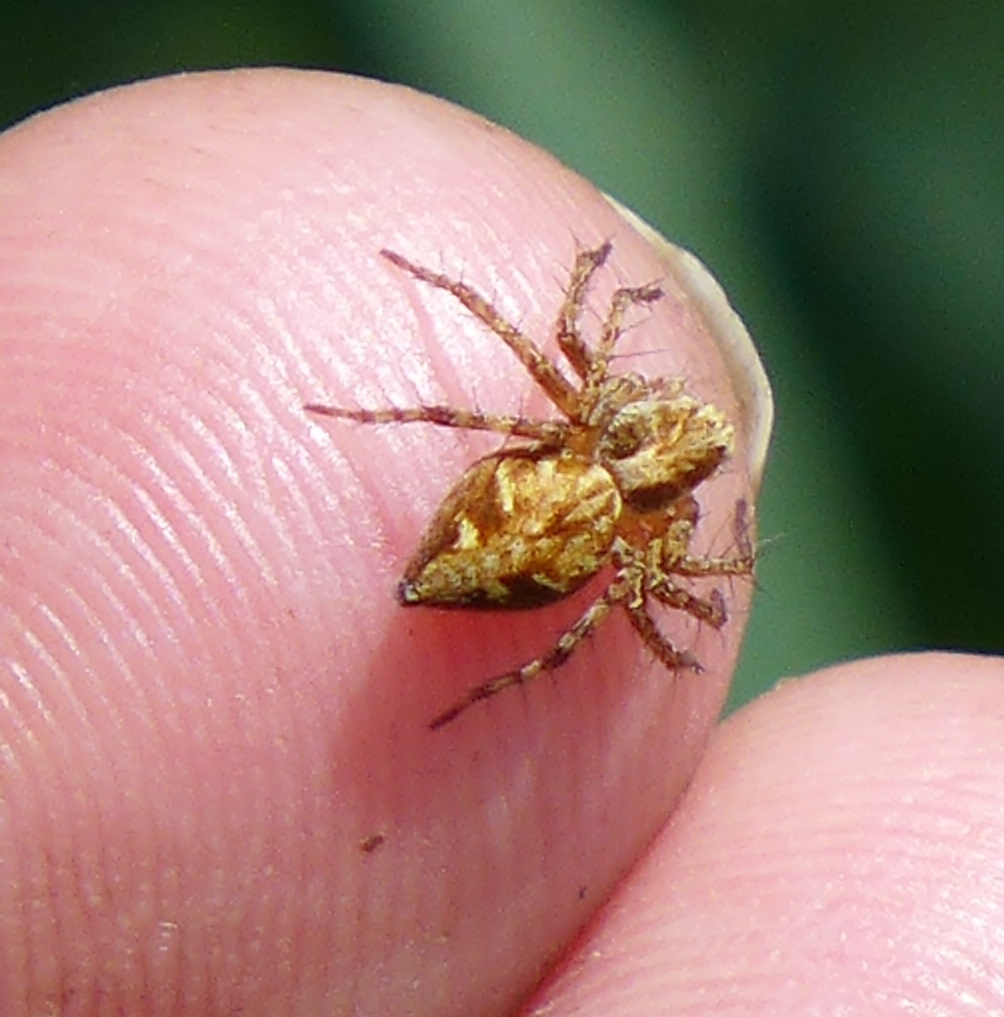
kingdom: Animalia
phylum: Arthropoda
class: Arachnida
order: Araneae
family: Oxyopidae
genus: Oxyopes
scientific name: Oxyopes scalaris
